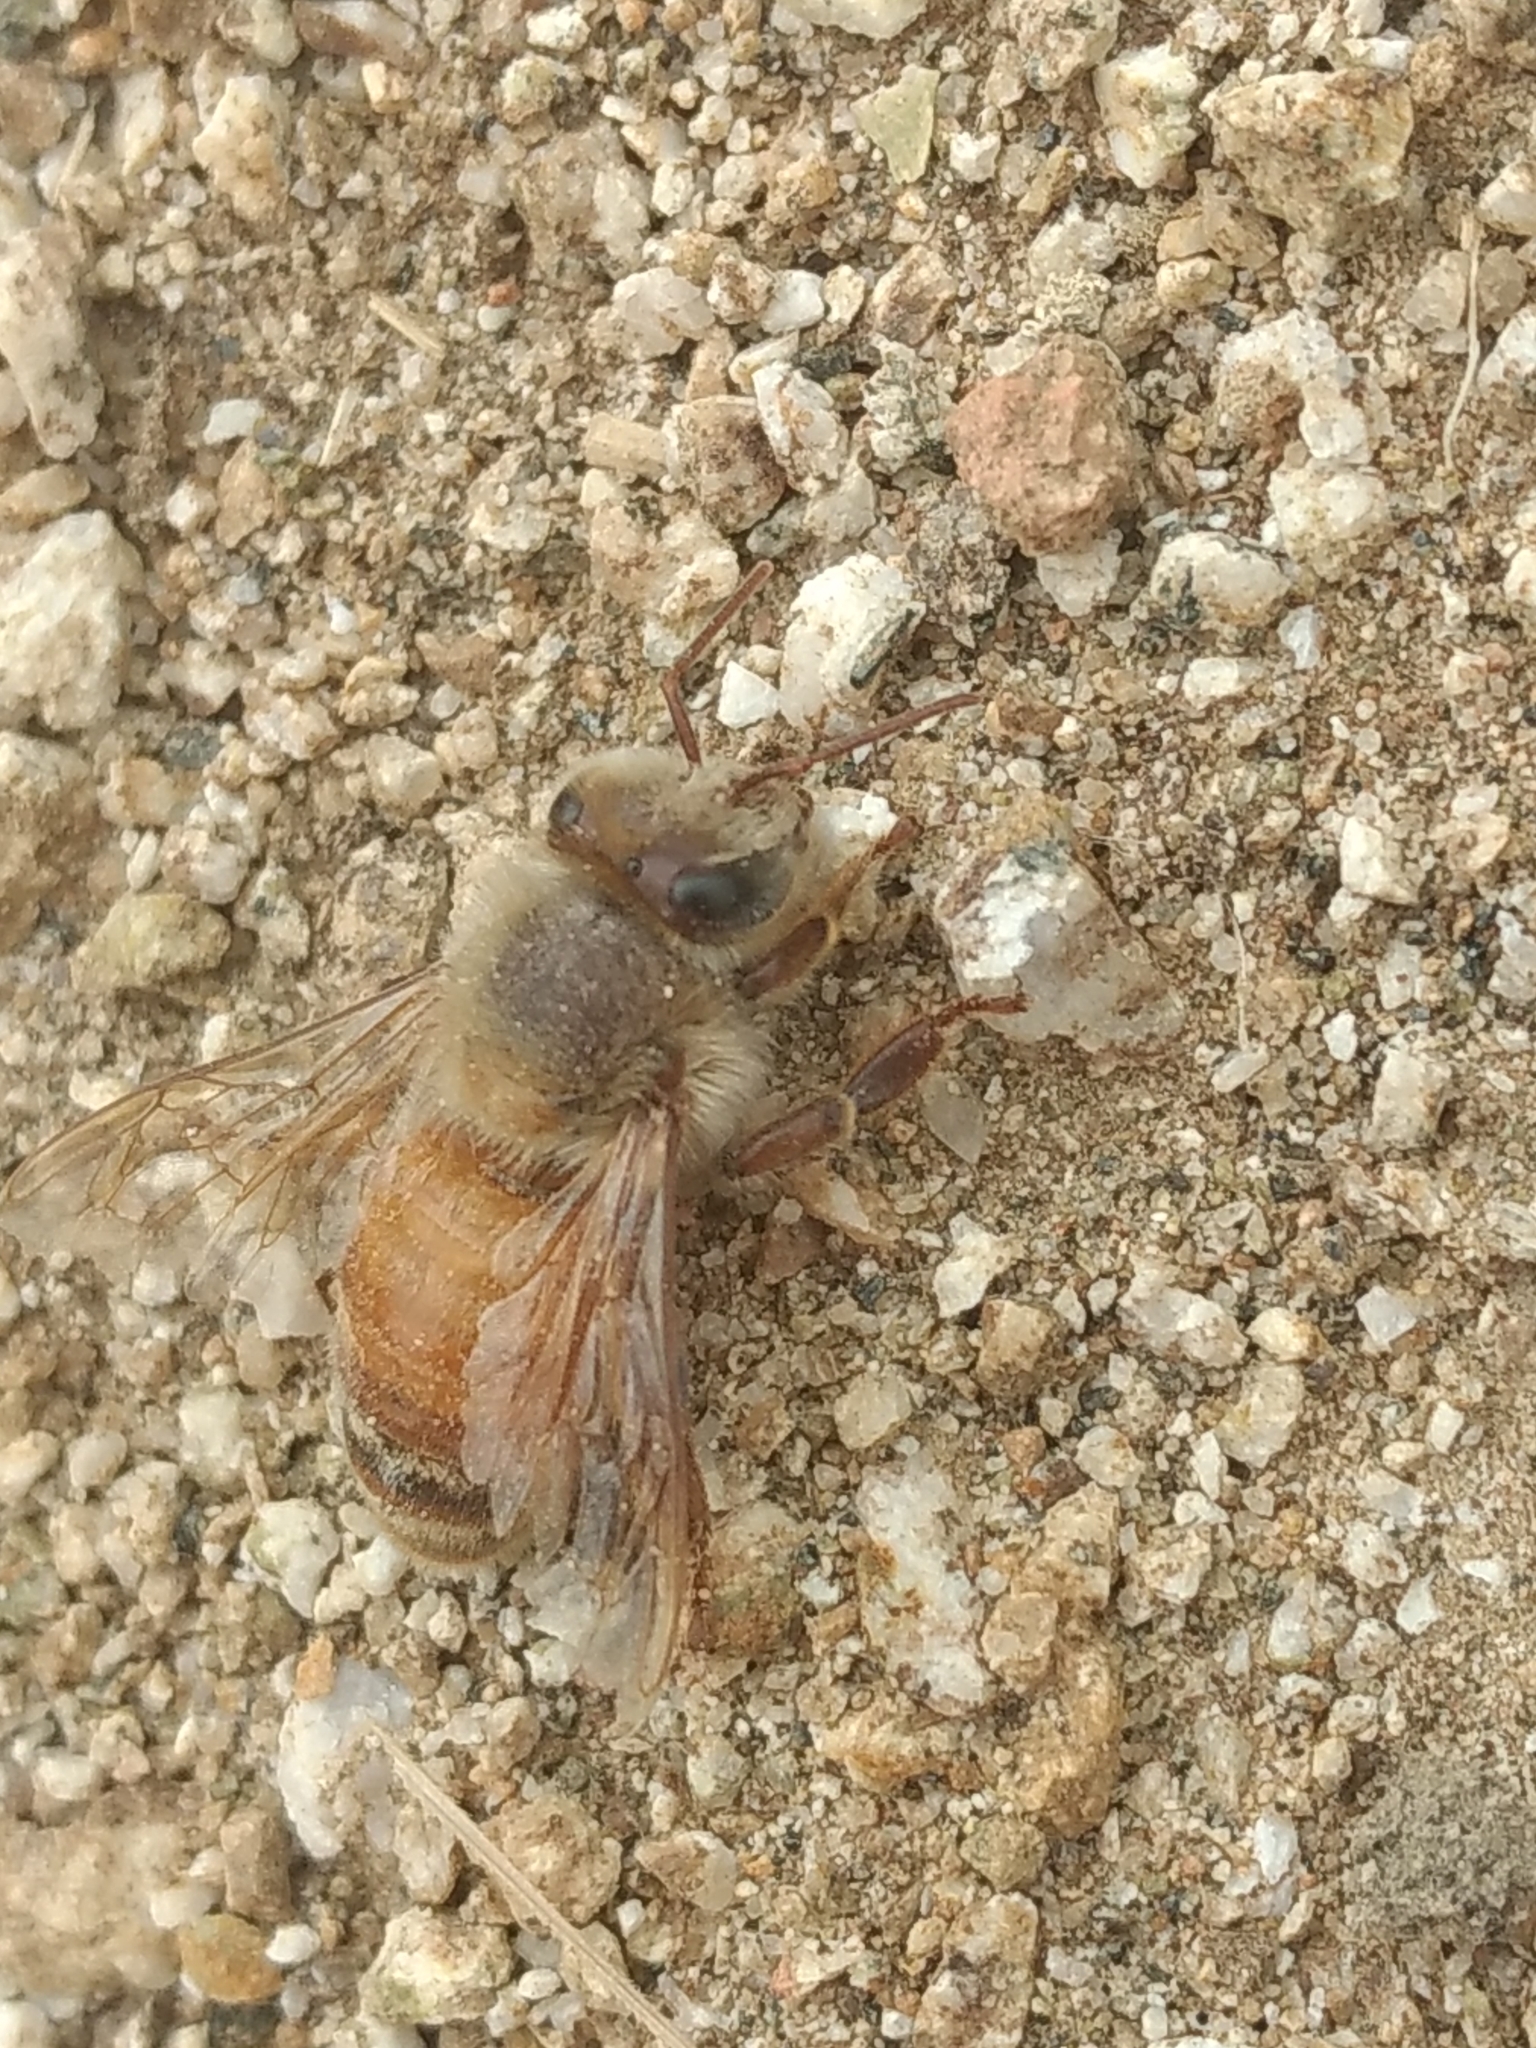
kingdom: Animalia
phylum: Arthropoda
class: Insecta
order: Hymenoptera
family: Apidae
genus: Apis
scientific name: Apis mellifera
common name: Honey bee
